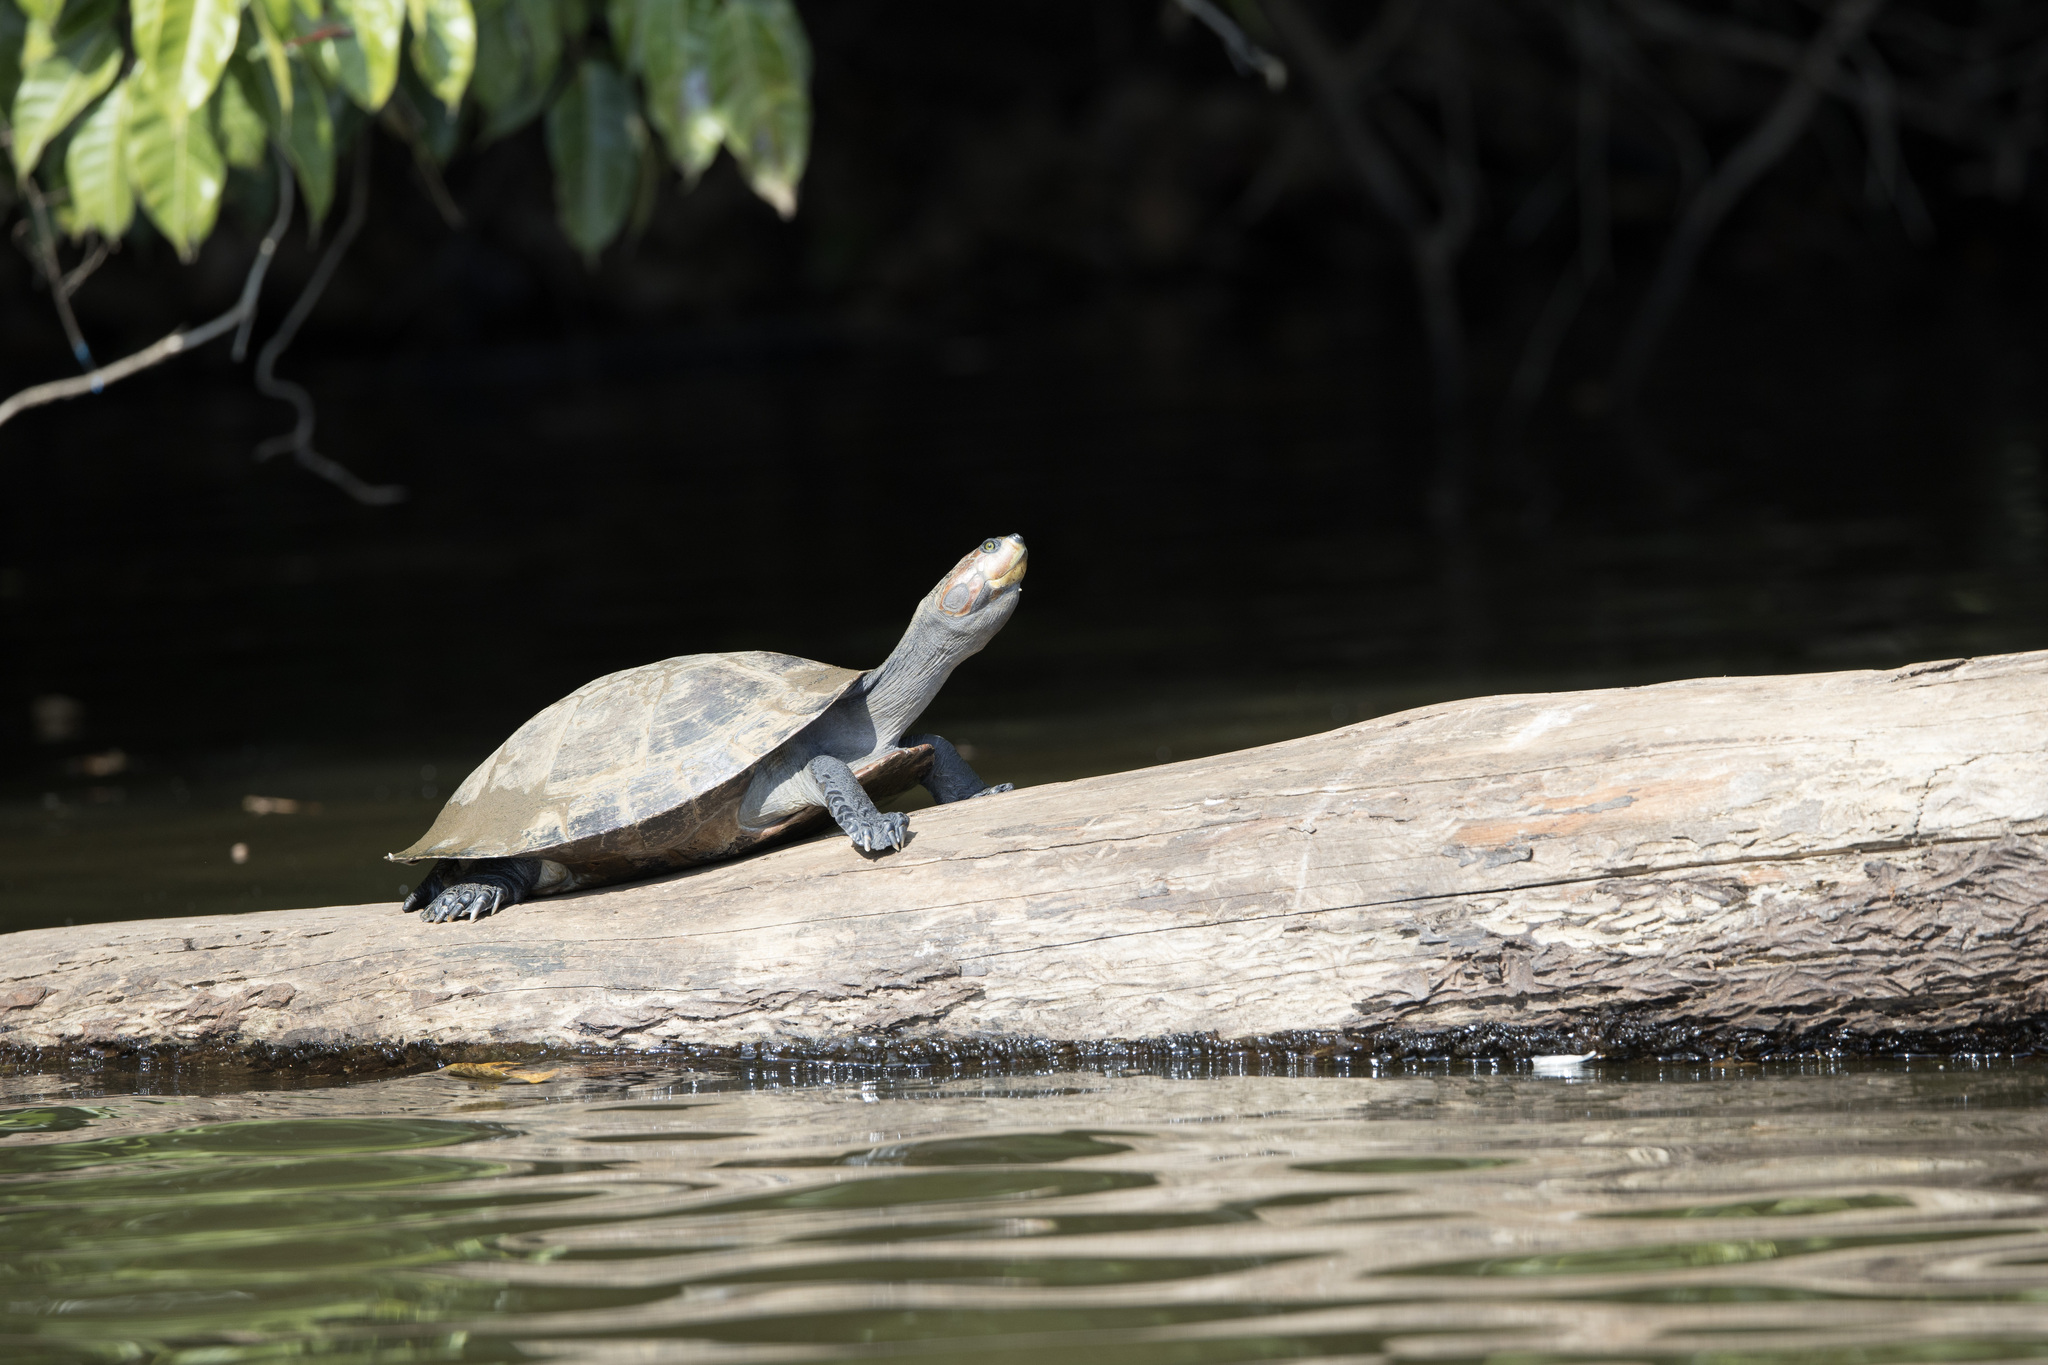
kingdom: Animalia
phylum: Chordata
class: Testudines
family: Podocnemididae
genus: Podocnemis
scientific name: Podocnemis unifilis
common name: Yellow-spotted amazon river turtle
